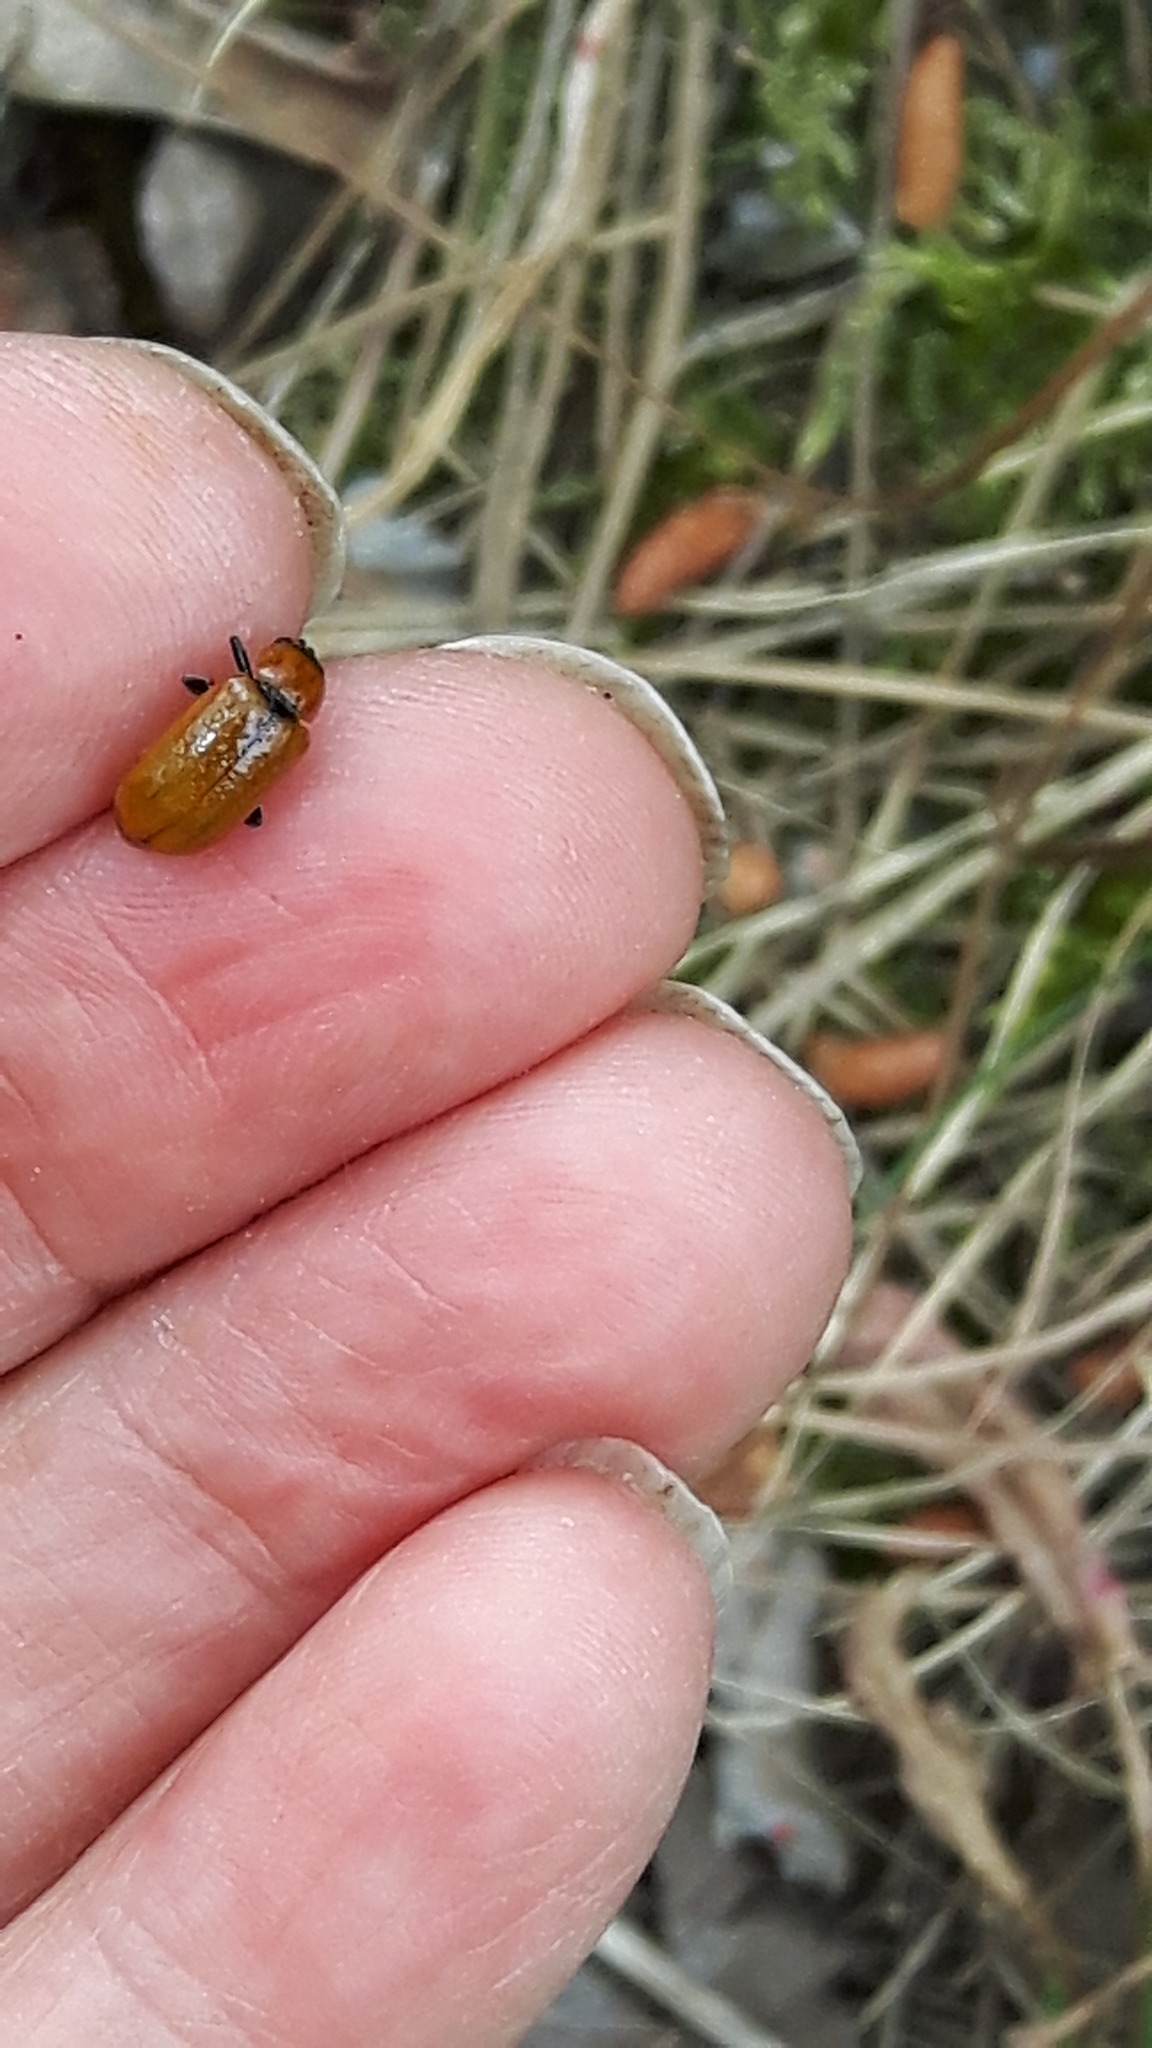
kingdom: Animalia
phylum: Arthropoda
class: Insecta
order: Coleoptera
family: Chrysomelidae
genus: Exosoma
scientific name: Exosoma lusitanicum
